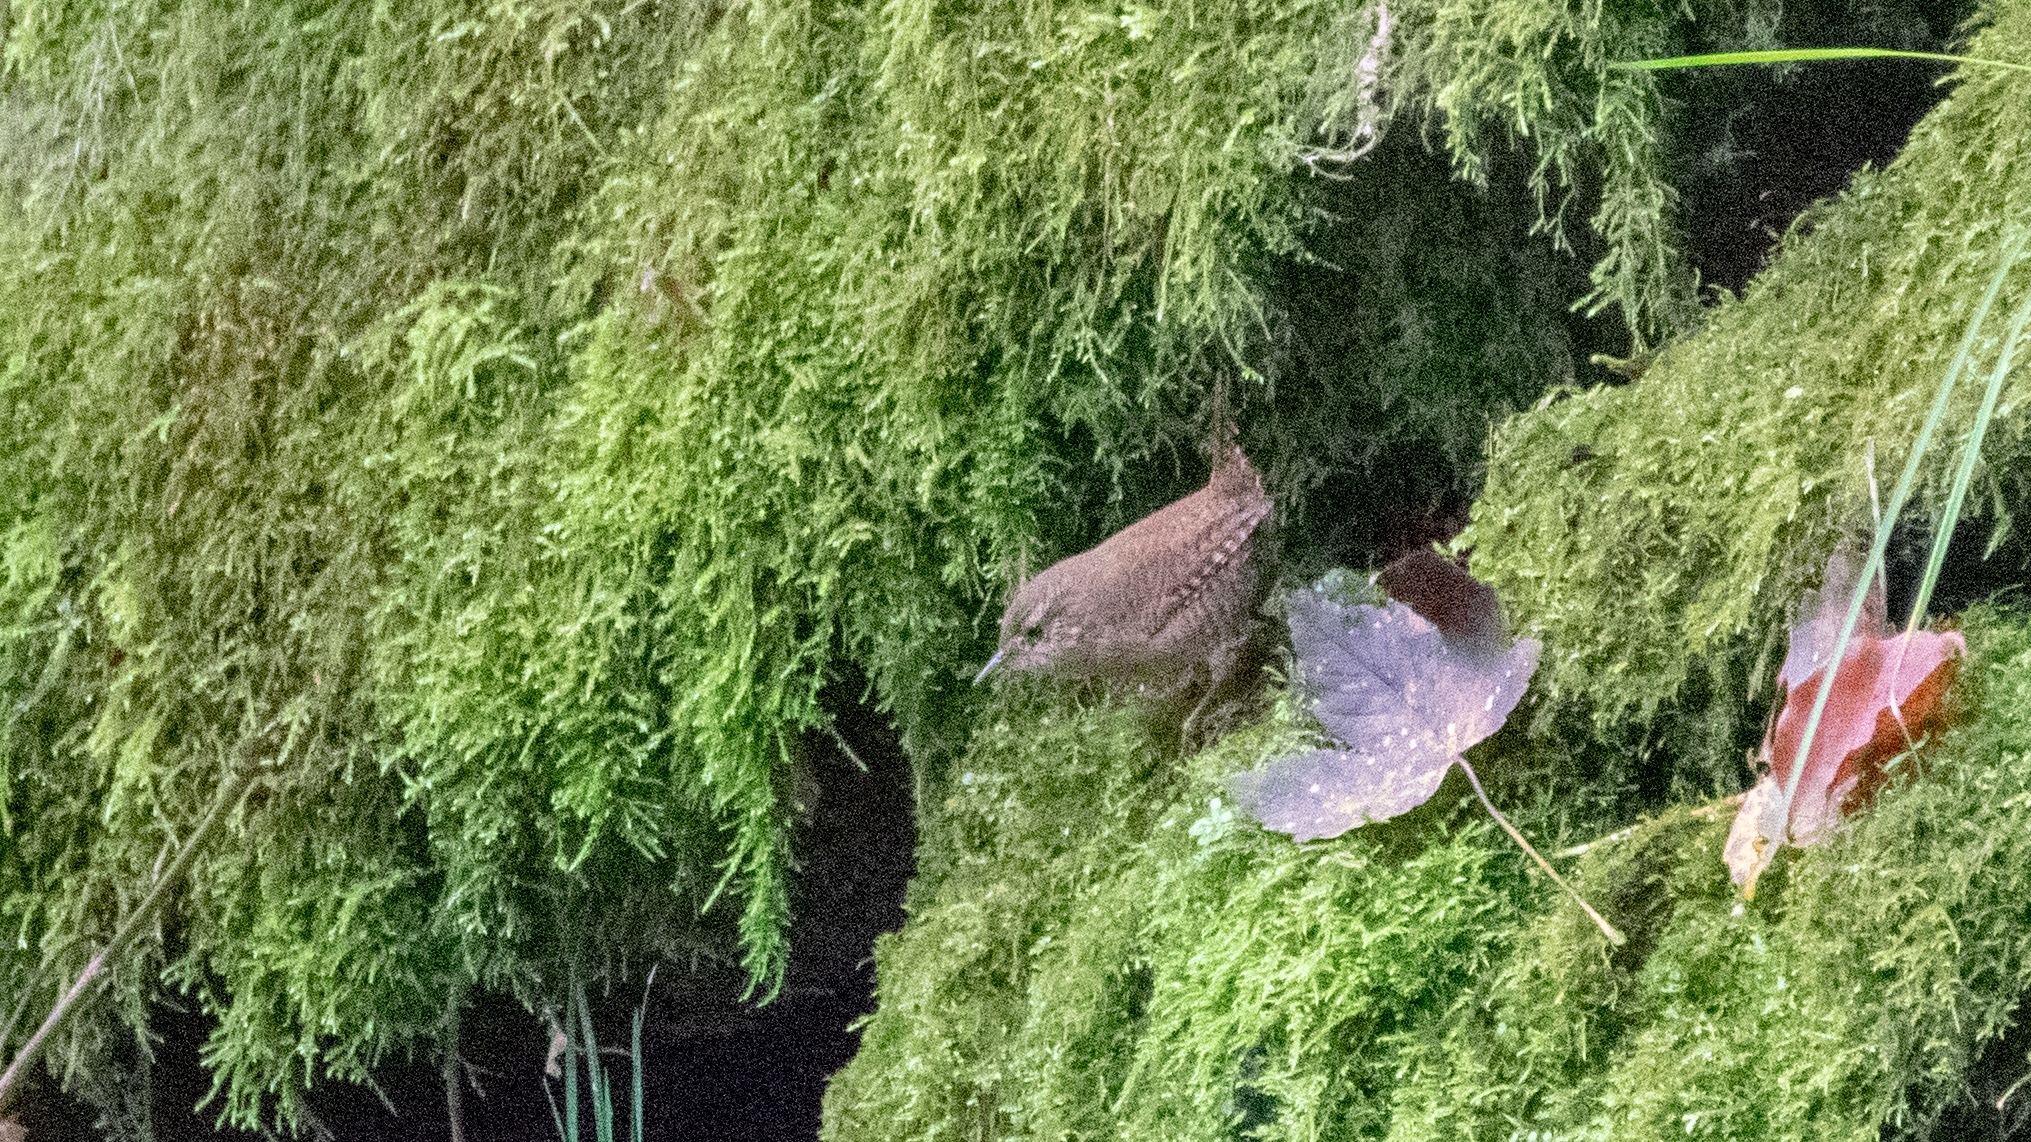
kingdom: Animalia
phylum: Chordata
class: Aves
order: Passeriformes
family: Troglodytidae
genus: Troglodytes
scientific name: Troglodytes troglodytes
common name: Eurasian wren
